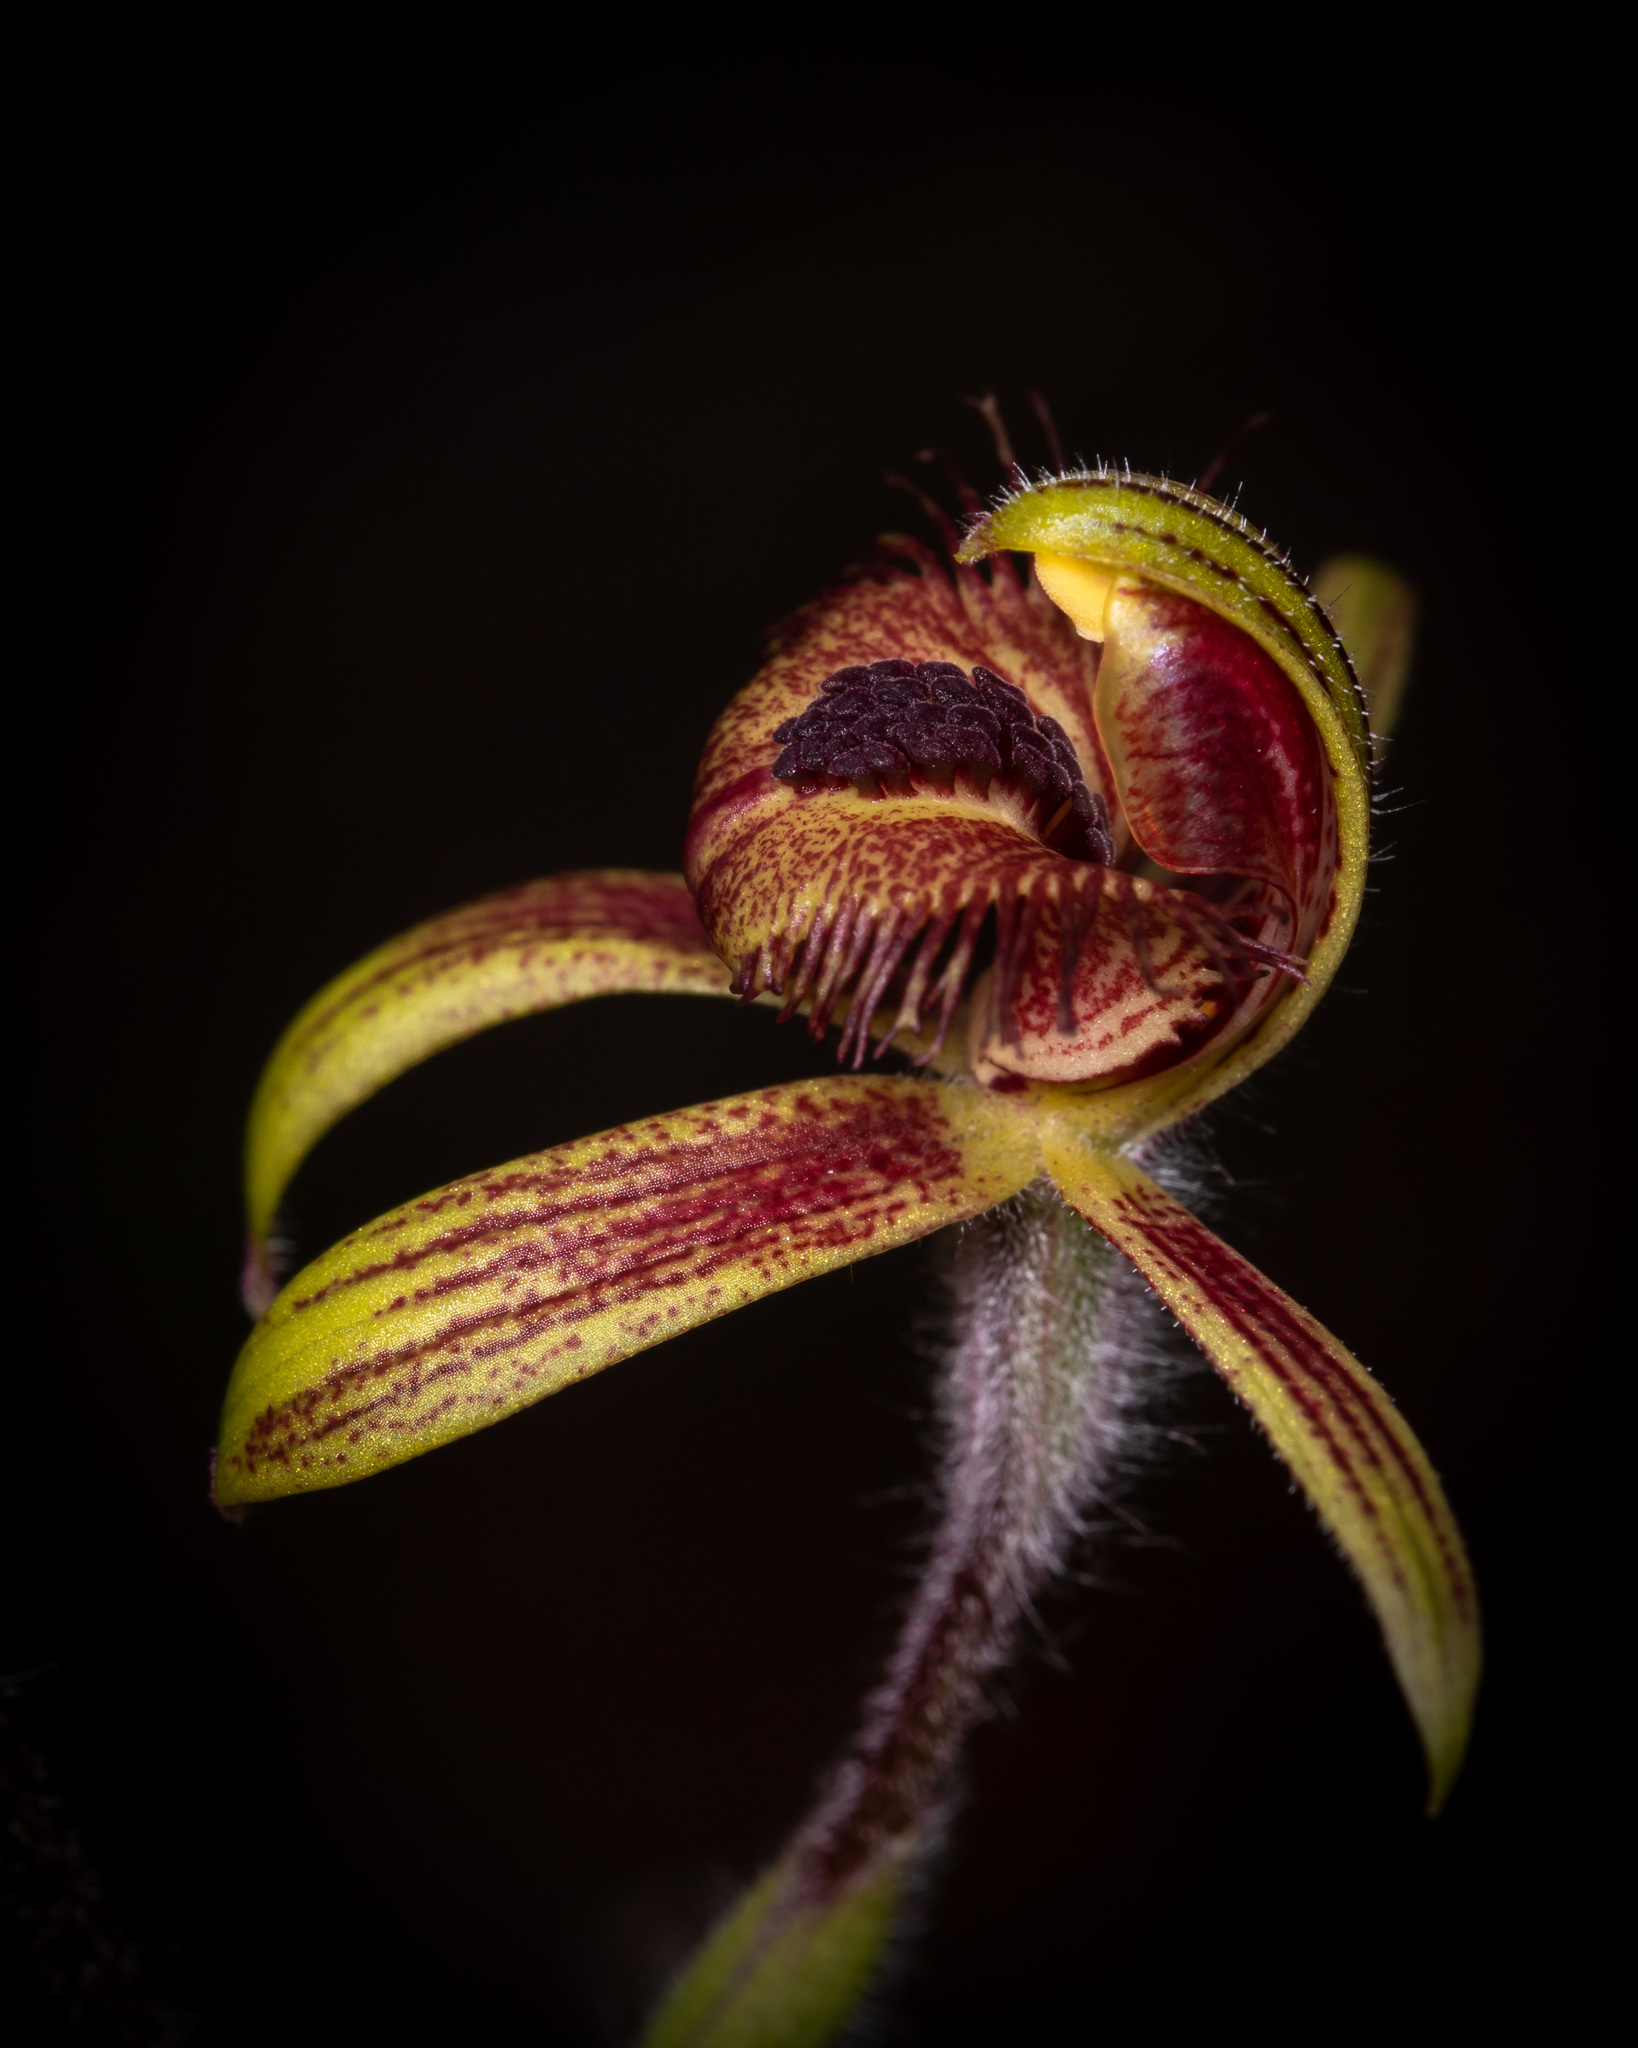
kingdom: Plantae
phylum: Tracheophyta
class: Liliopsida
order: Asparagales
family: Orchidaceae
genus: Caladenia
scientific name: Caladenia discoidea
